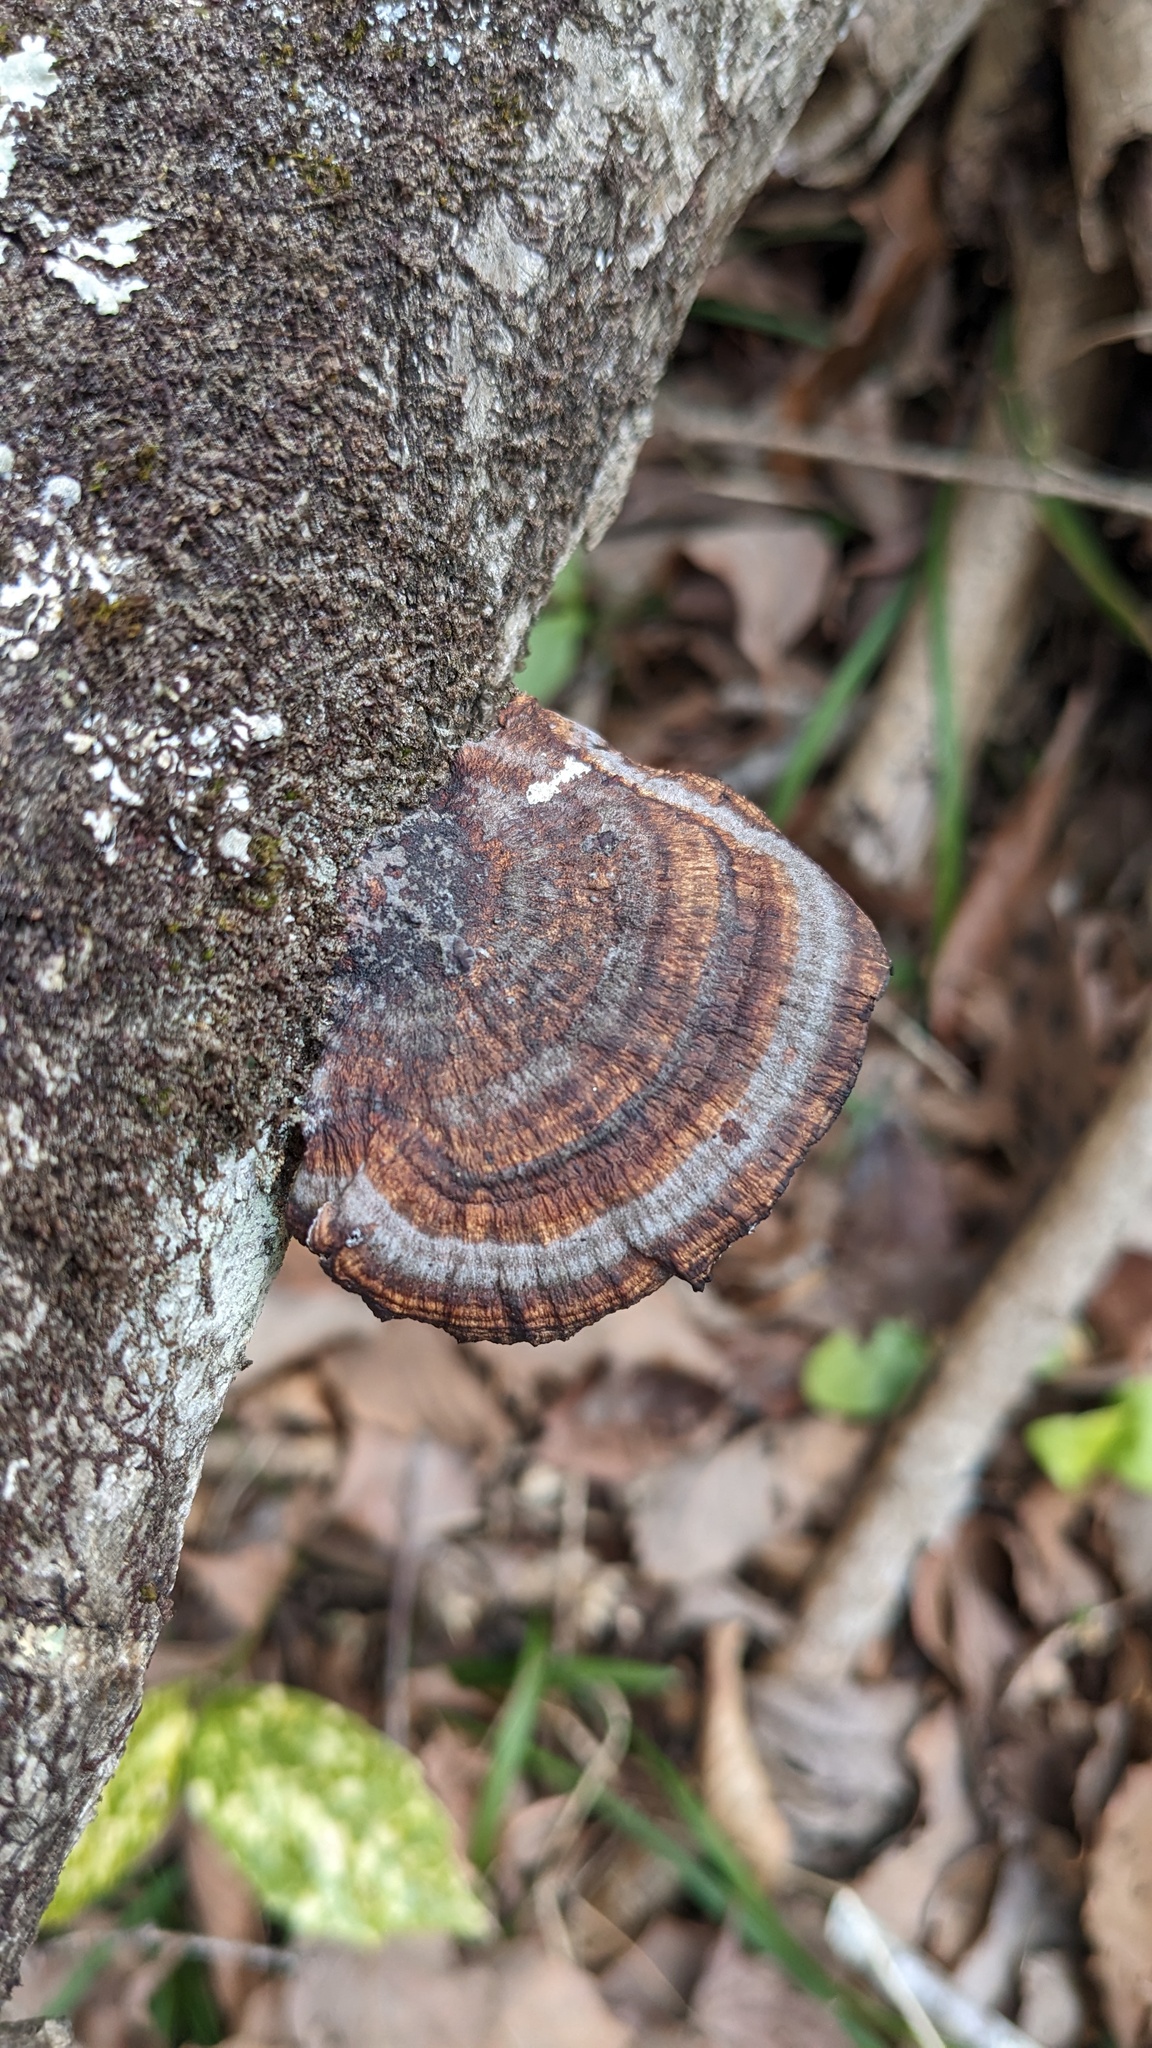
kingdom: Fungi
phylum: Basidiomycota
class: Agaricomycetes
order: Polyporales
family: Polyporaceae
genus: Daedaleopsis
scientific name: Daedaleopsis tricolor
